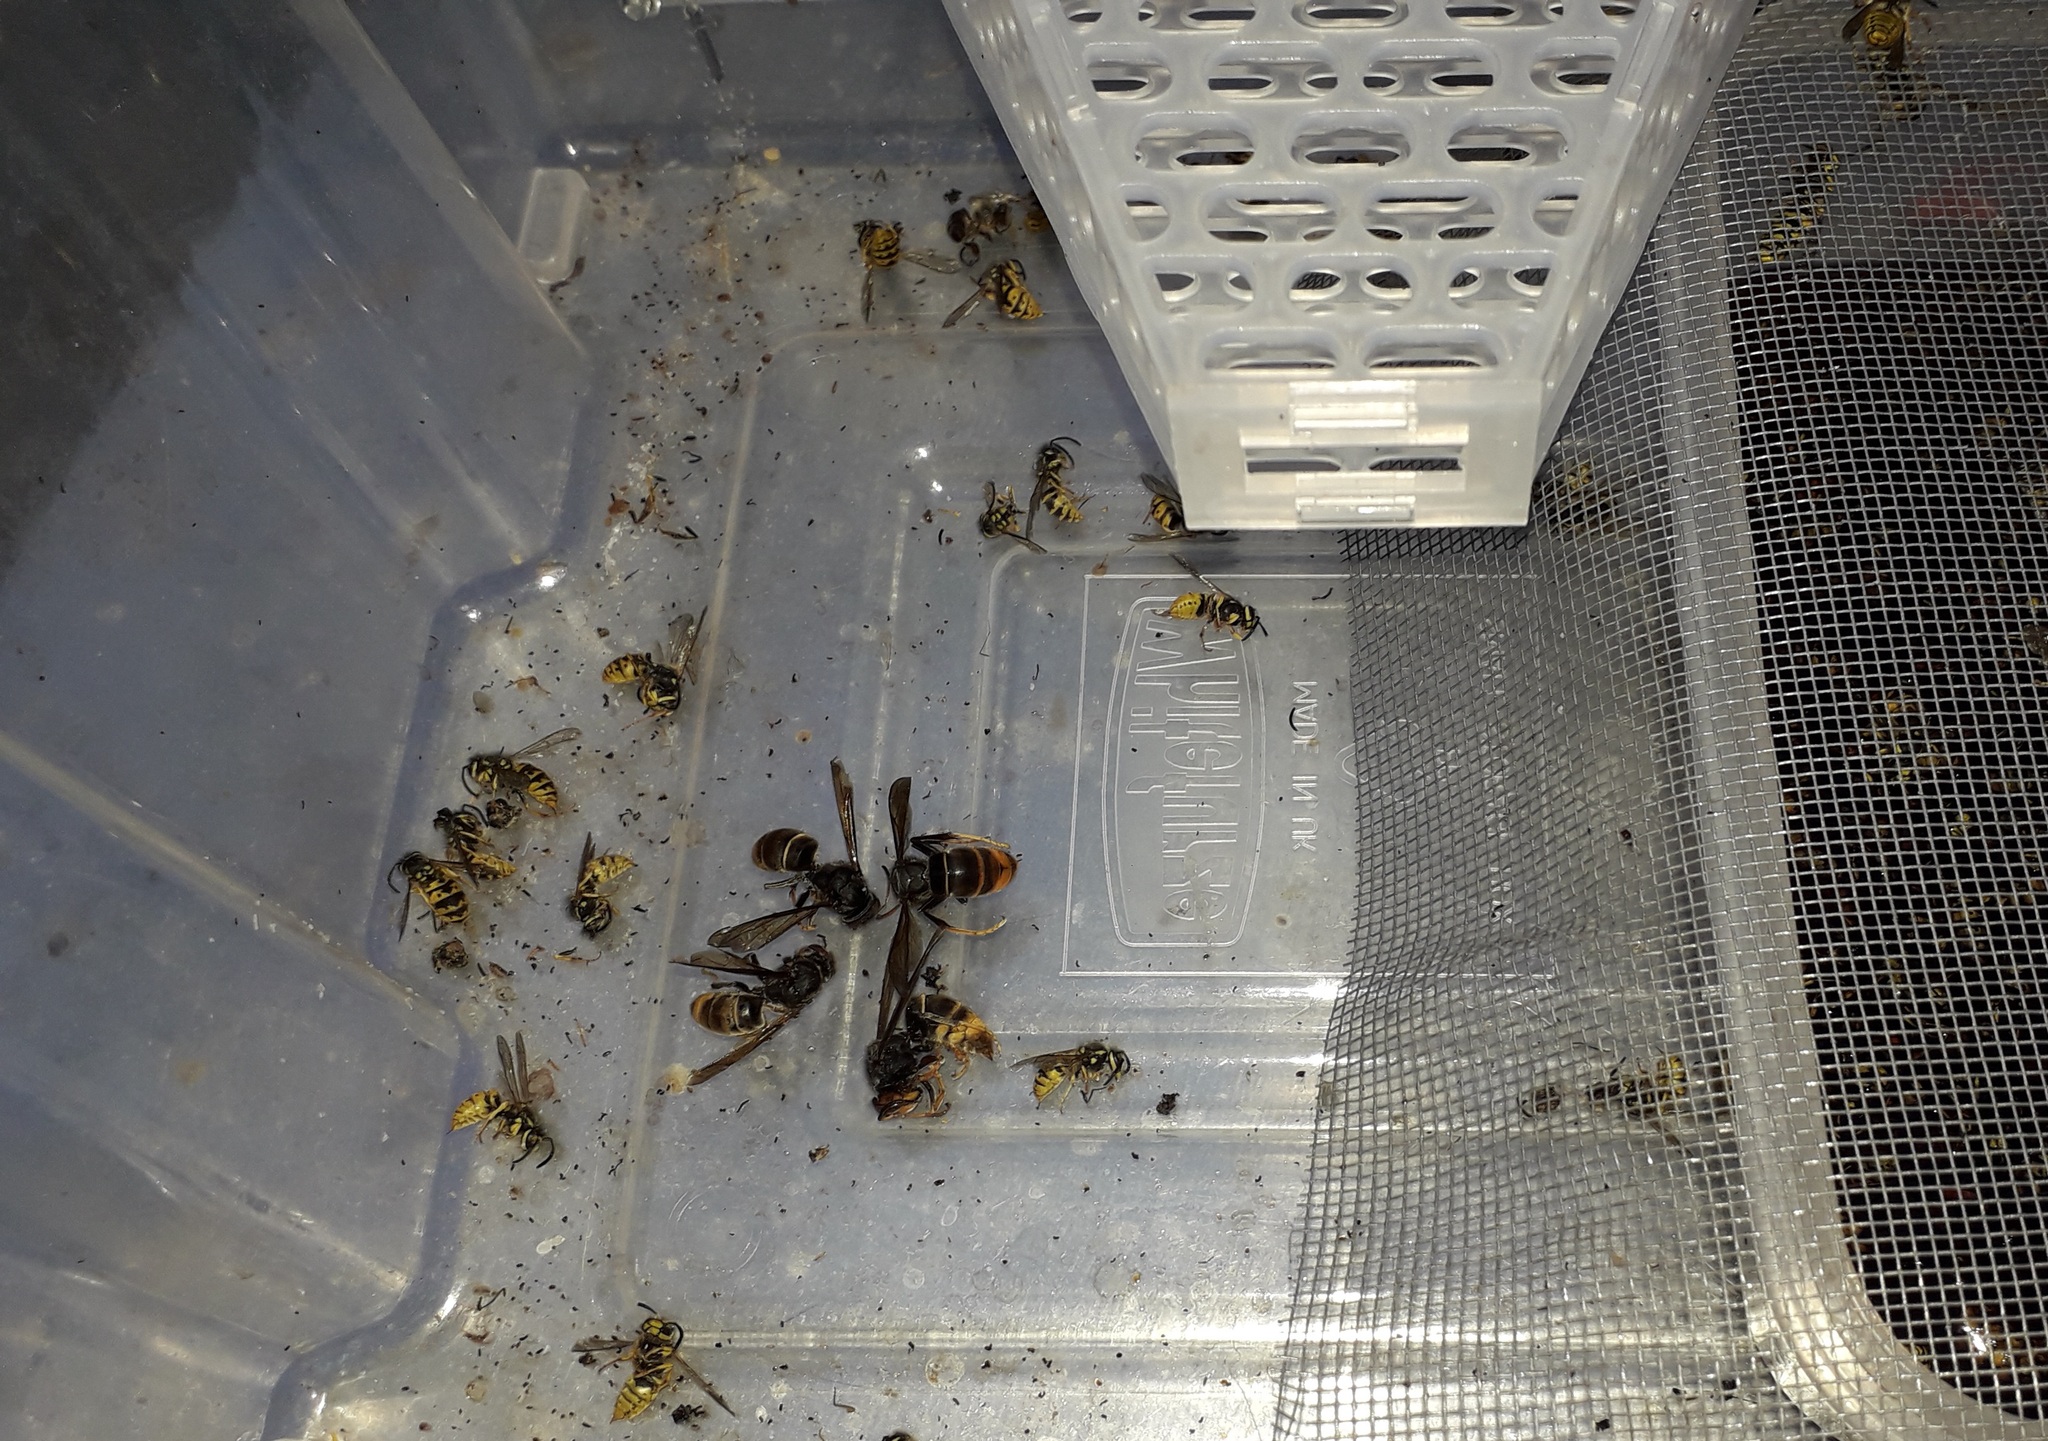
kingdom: Animalia
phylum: Arthropoda
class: Insecta
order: Hymenoptera
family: Vespidae
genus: Vespa
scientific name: Vespa velutina
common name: Asian hornet
